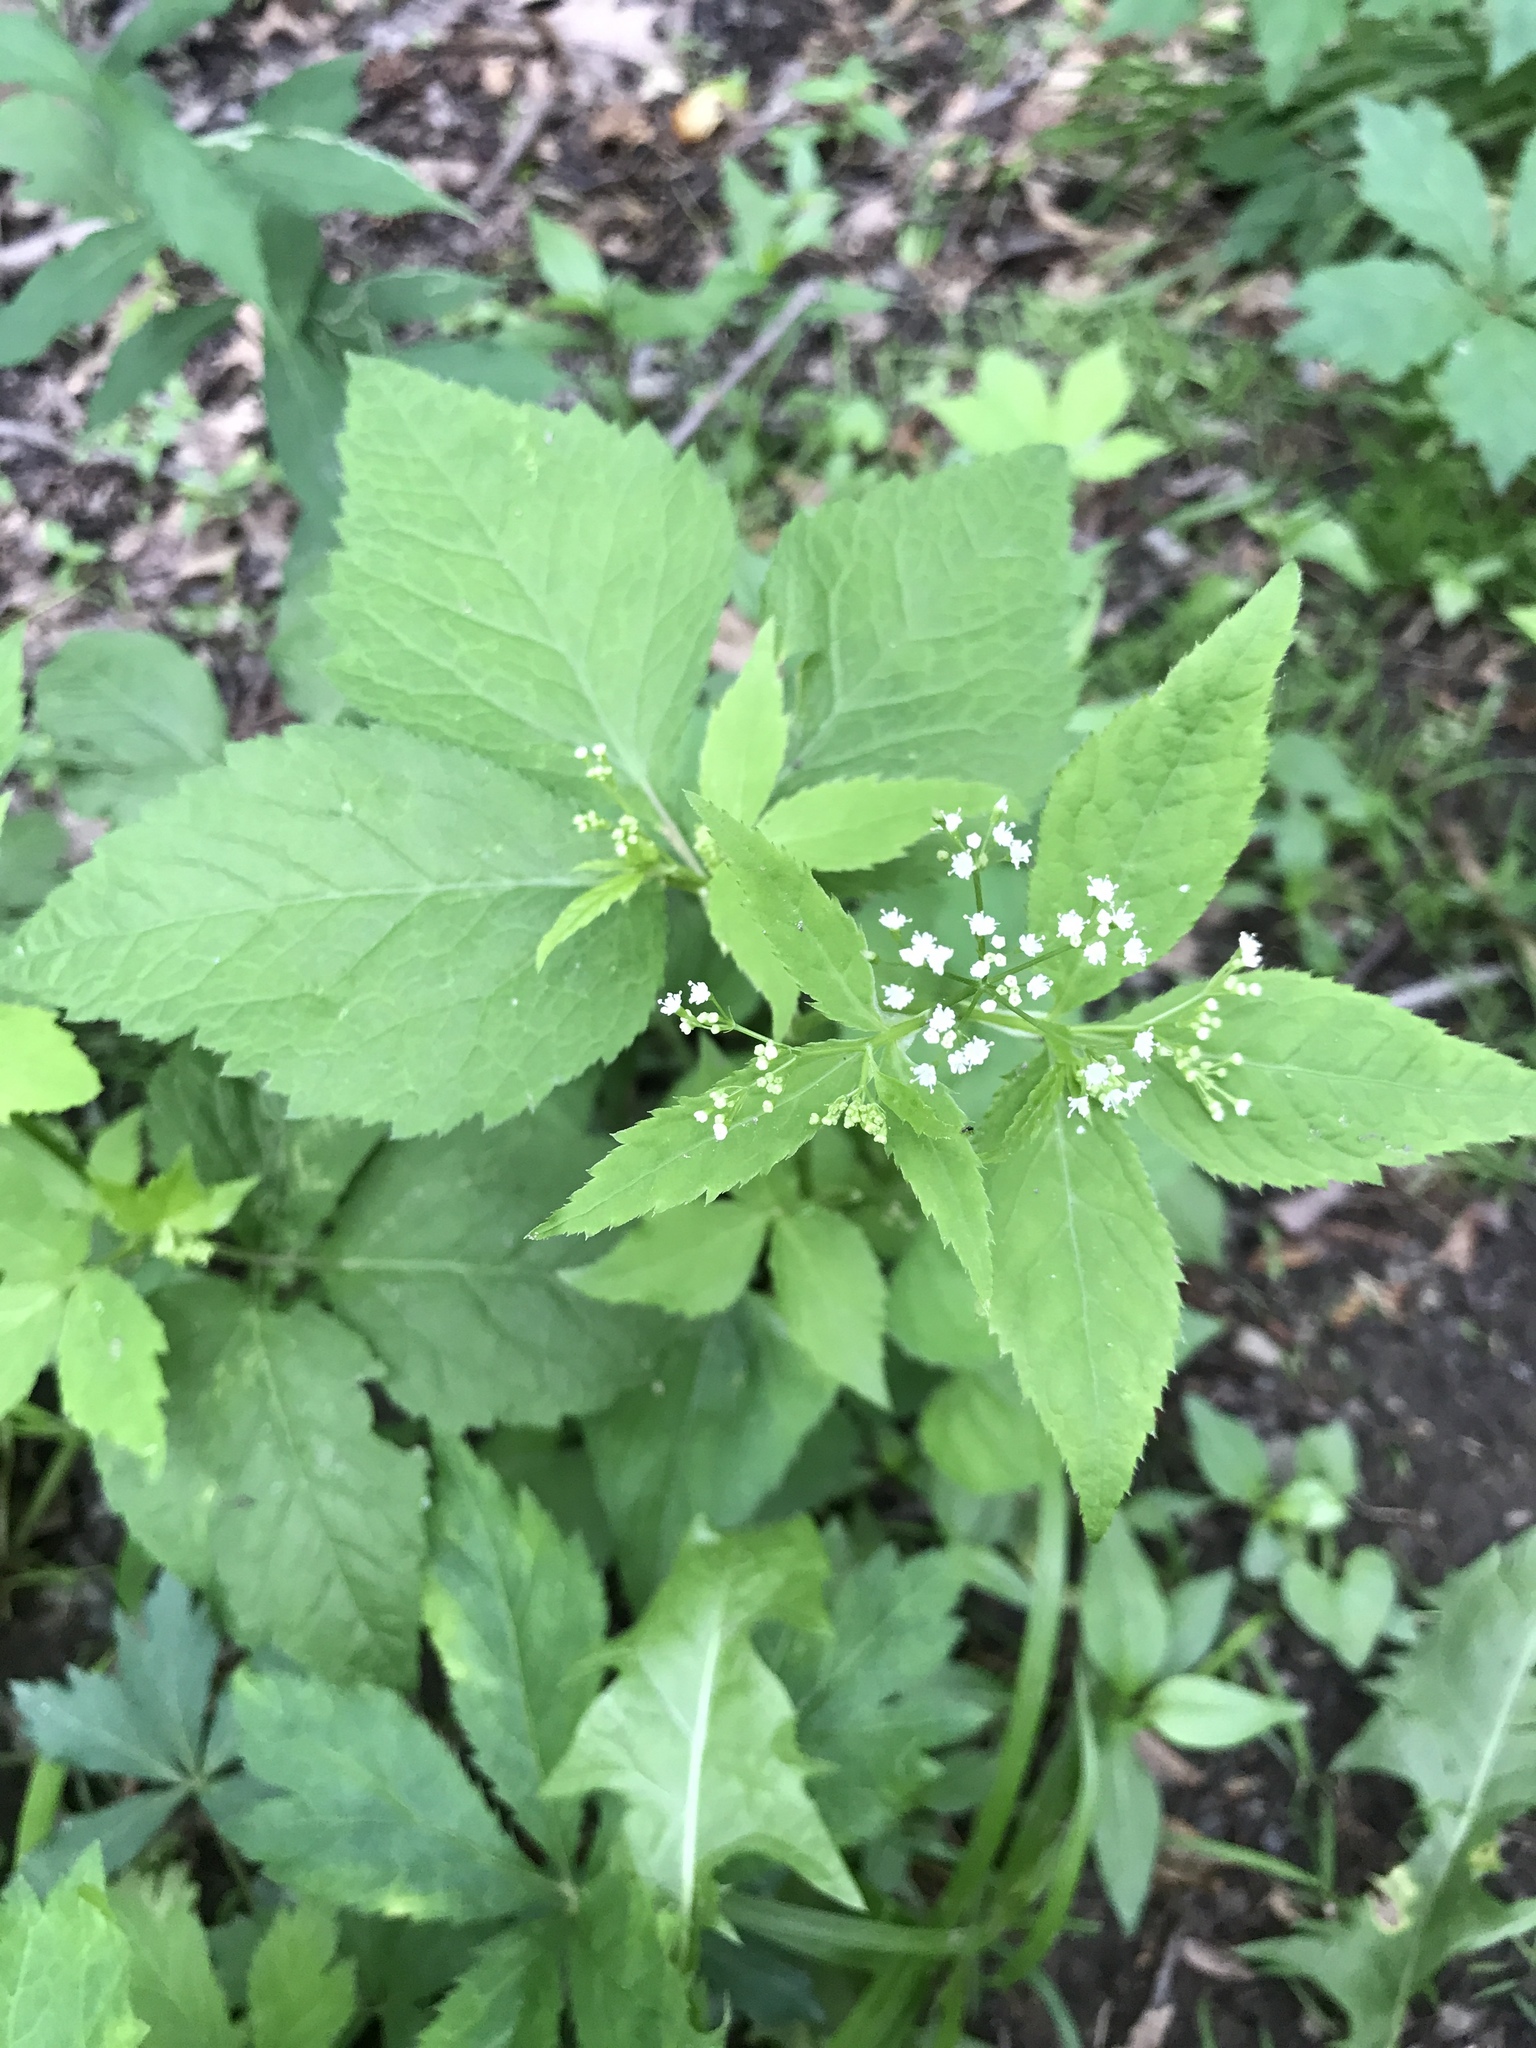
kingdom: Plantae
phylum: Tracheophyta
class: Magnoliopsida
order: Apiales
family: Apiaceae
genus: Cryptotaenia
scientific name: Cryptotaenia canadensis
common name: Honewort
